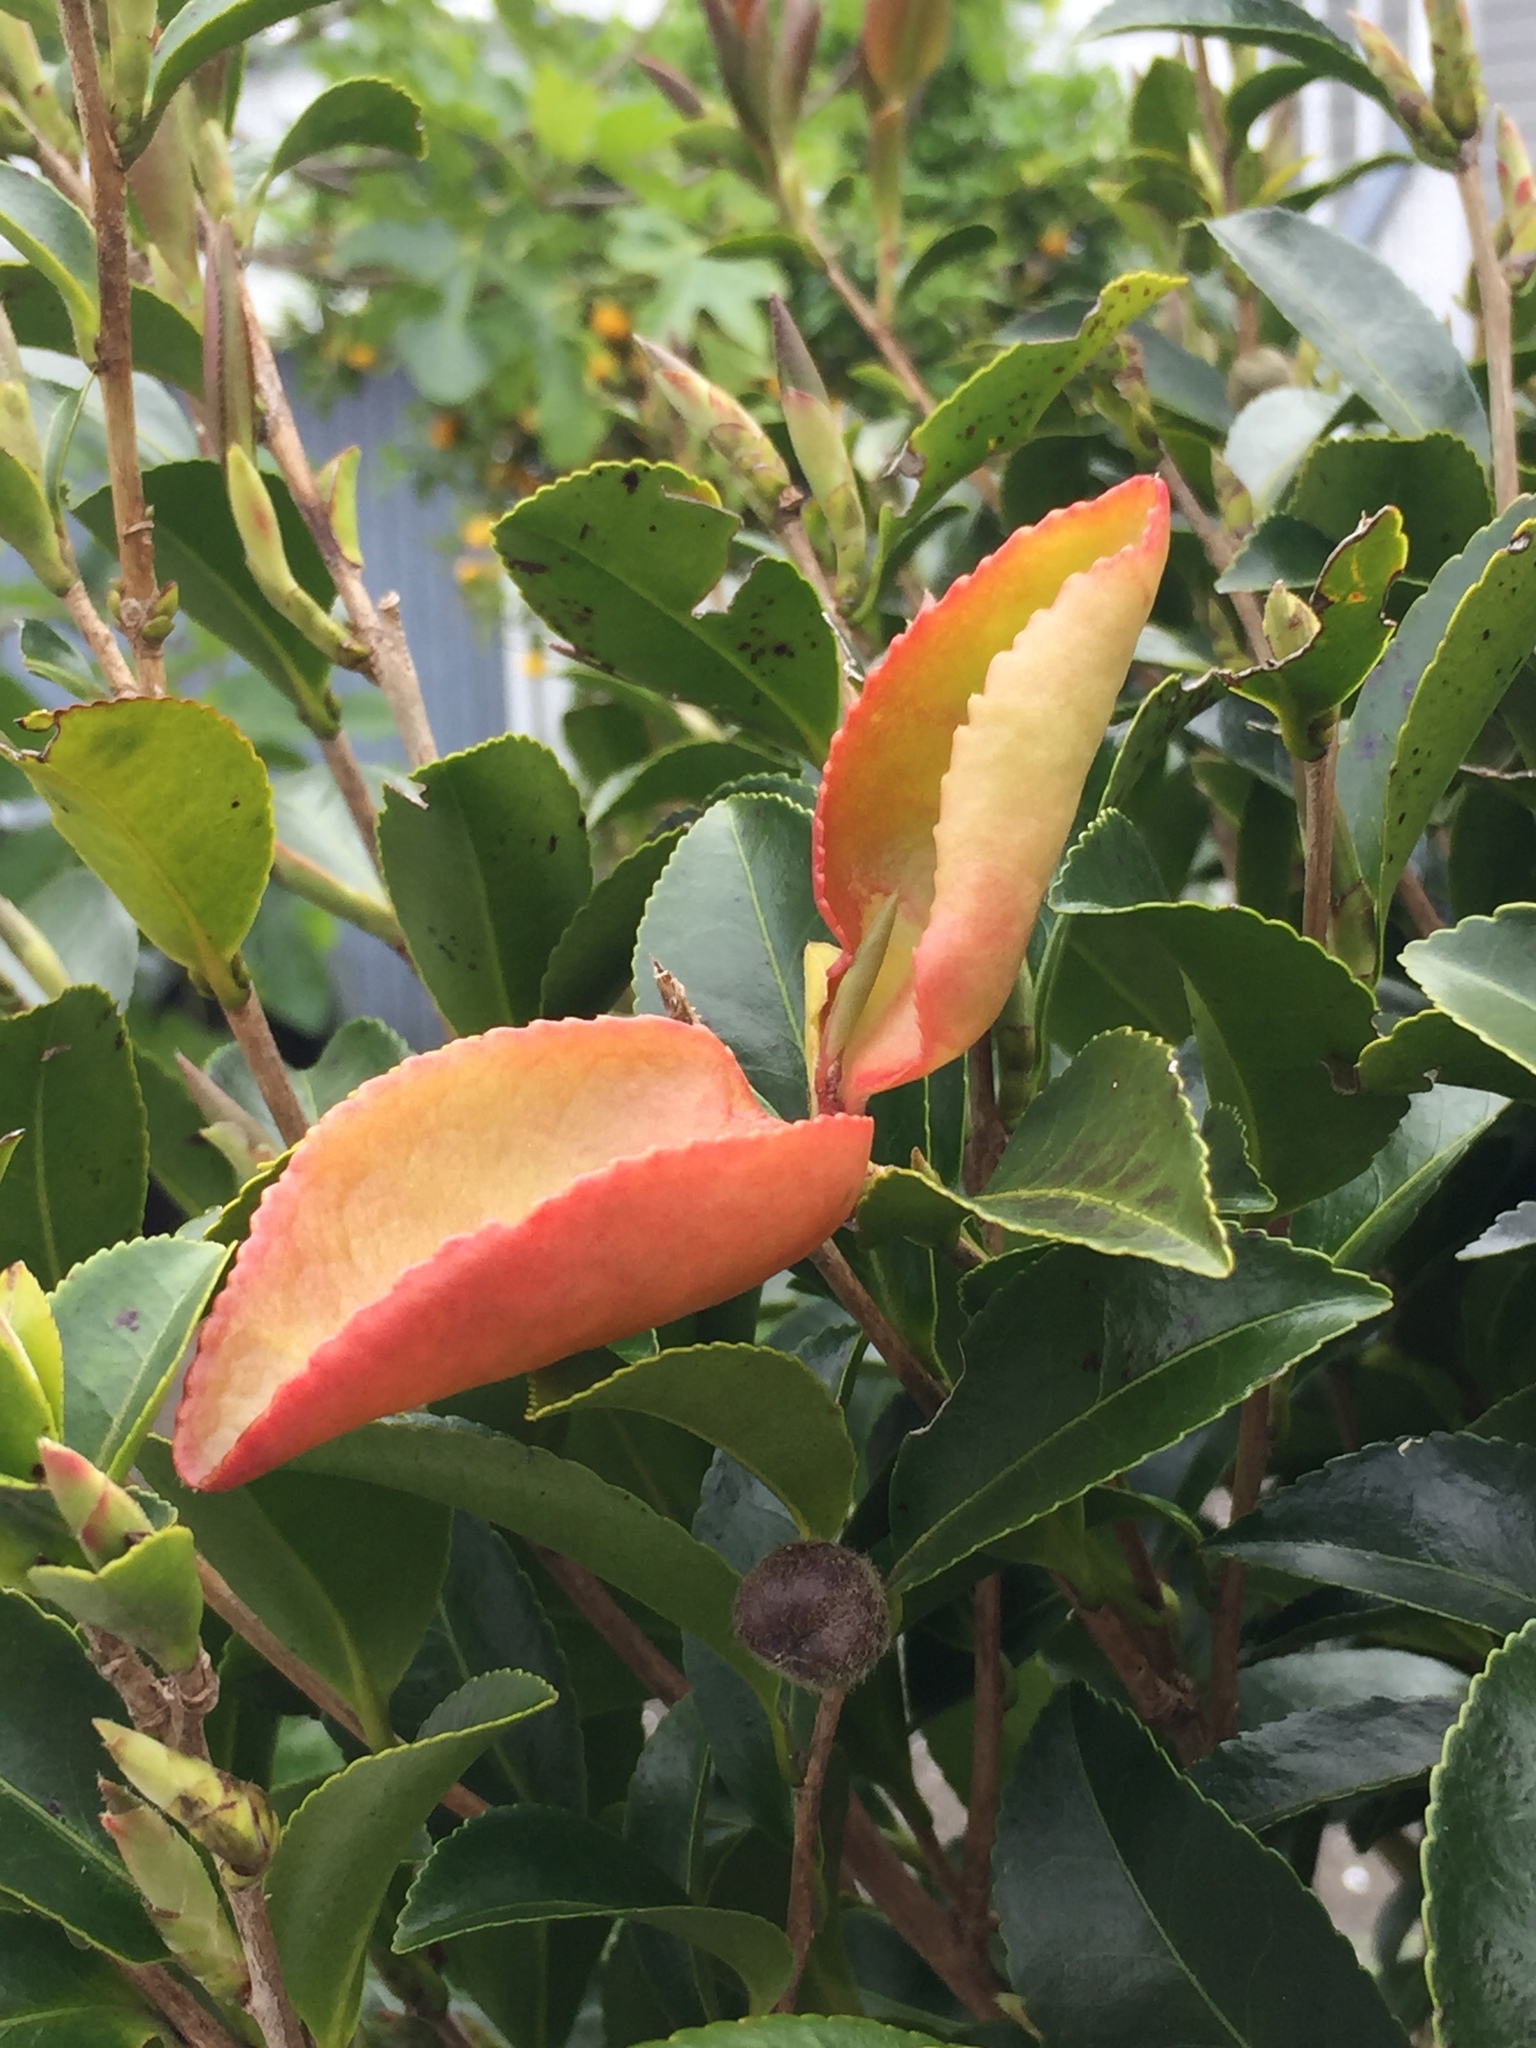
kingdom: Fungi
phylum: Basidiomycota
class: Exobasidiomycetes
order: Exobasidiales
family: Exobasidiaceae
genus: Exobasidium
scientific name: Exobasidium camelliae
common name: Camellia gall
